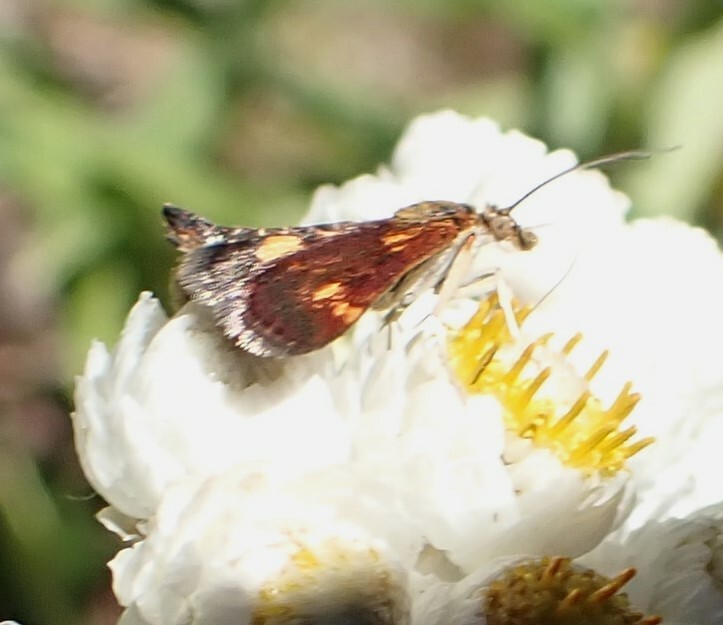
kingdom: Animalia
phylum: Arthropoda
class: Insecta
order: Lepidoptera
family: Crambidae
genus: Pyrausta
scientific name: Pyrausta orphisalis
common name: Orange mint moth
